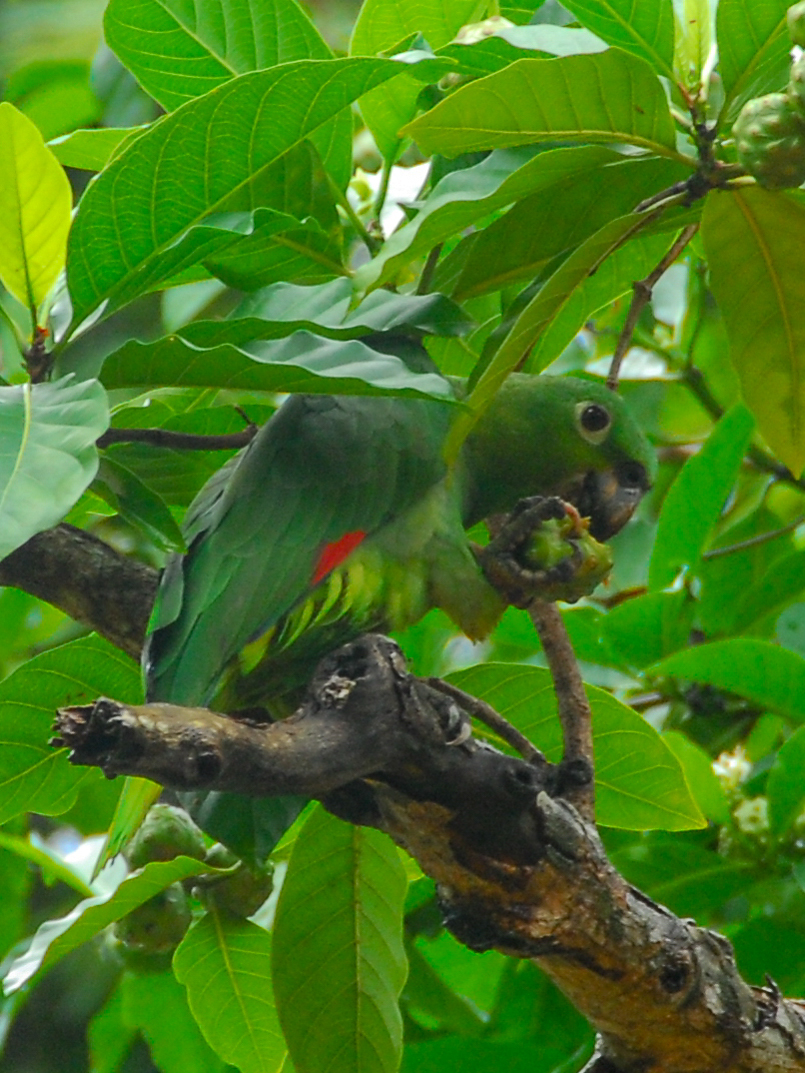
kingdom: Animalia
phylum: Chordata
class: Aves
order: Psittaciformes
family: Psittacidae
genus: Amazona
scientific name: Amazona farinosa
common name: Mealy parrot
